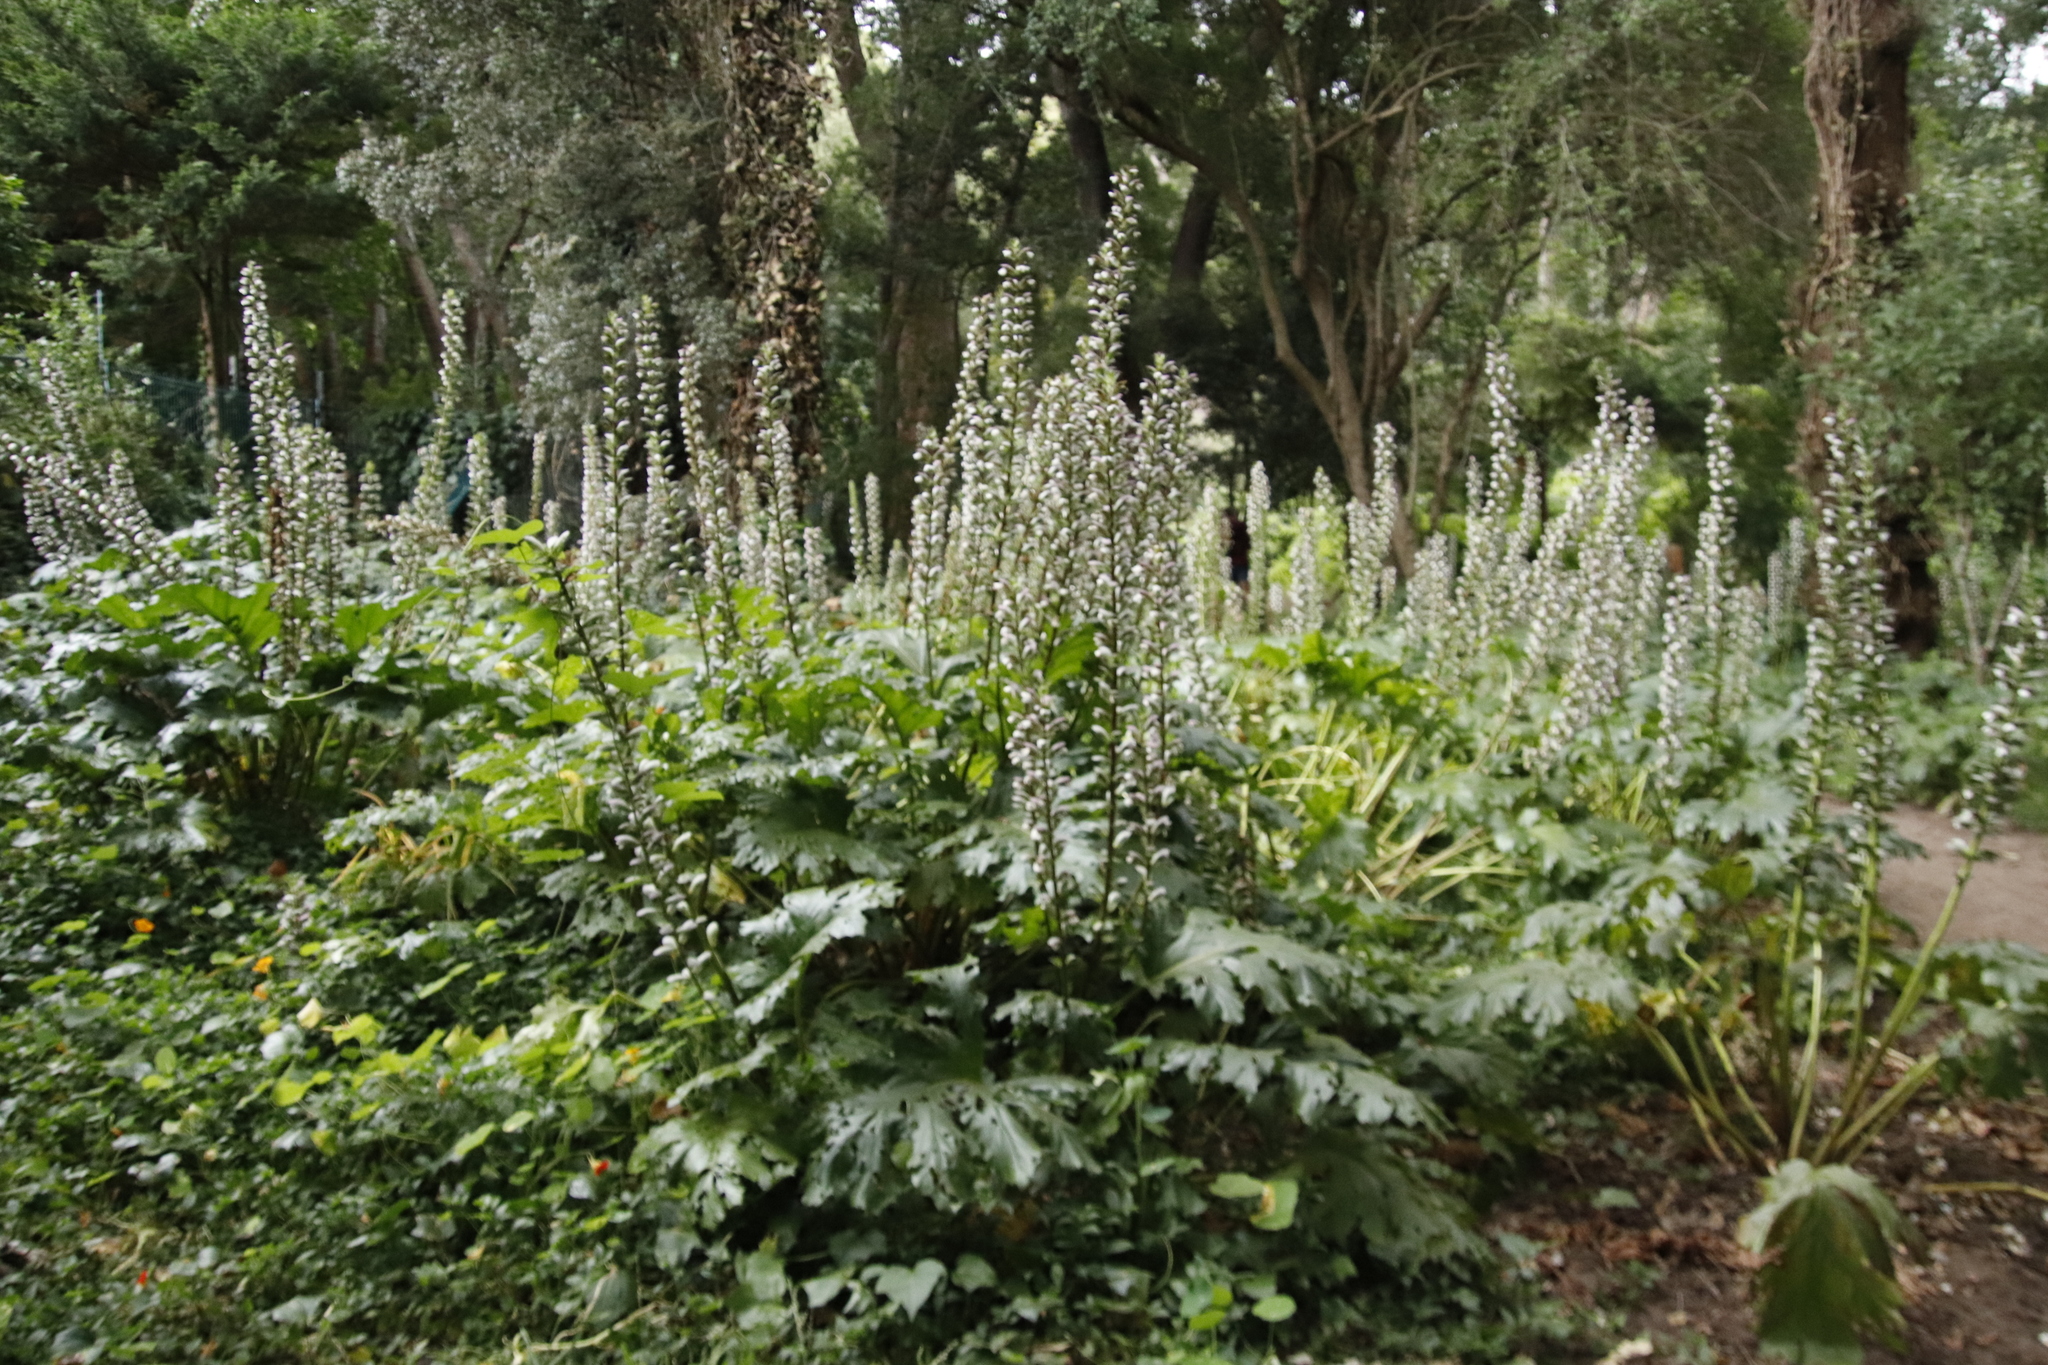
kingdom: Plantae
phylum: Tracheophyta
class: Magnoliopsida
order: Lamiales
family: Acanthaceae
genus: Acanthus
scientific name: Acanthus mollis
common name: Bear's-breech
